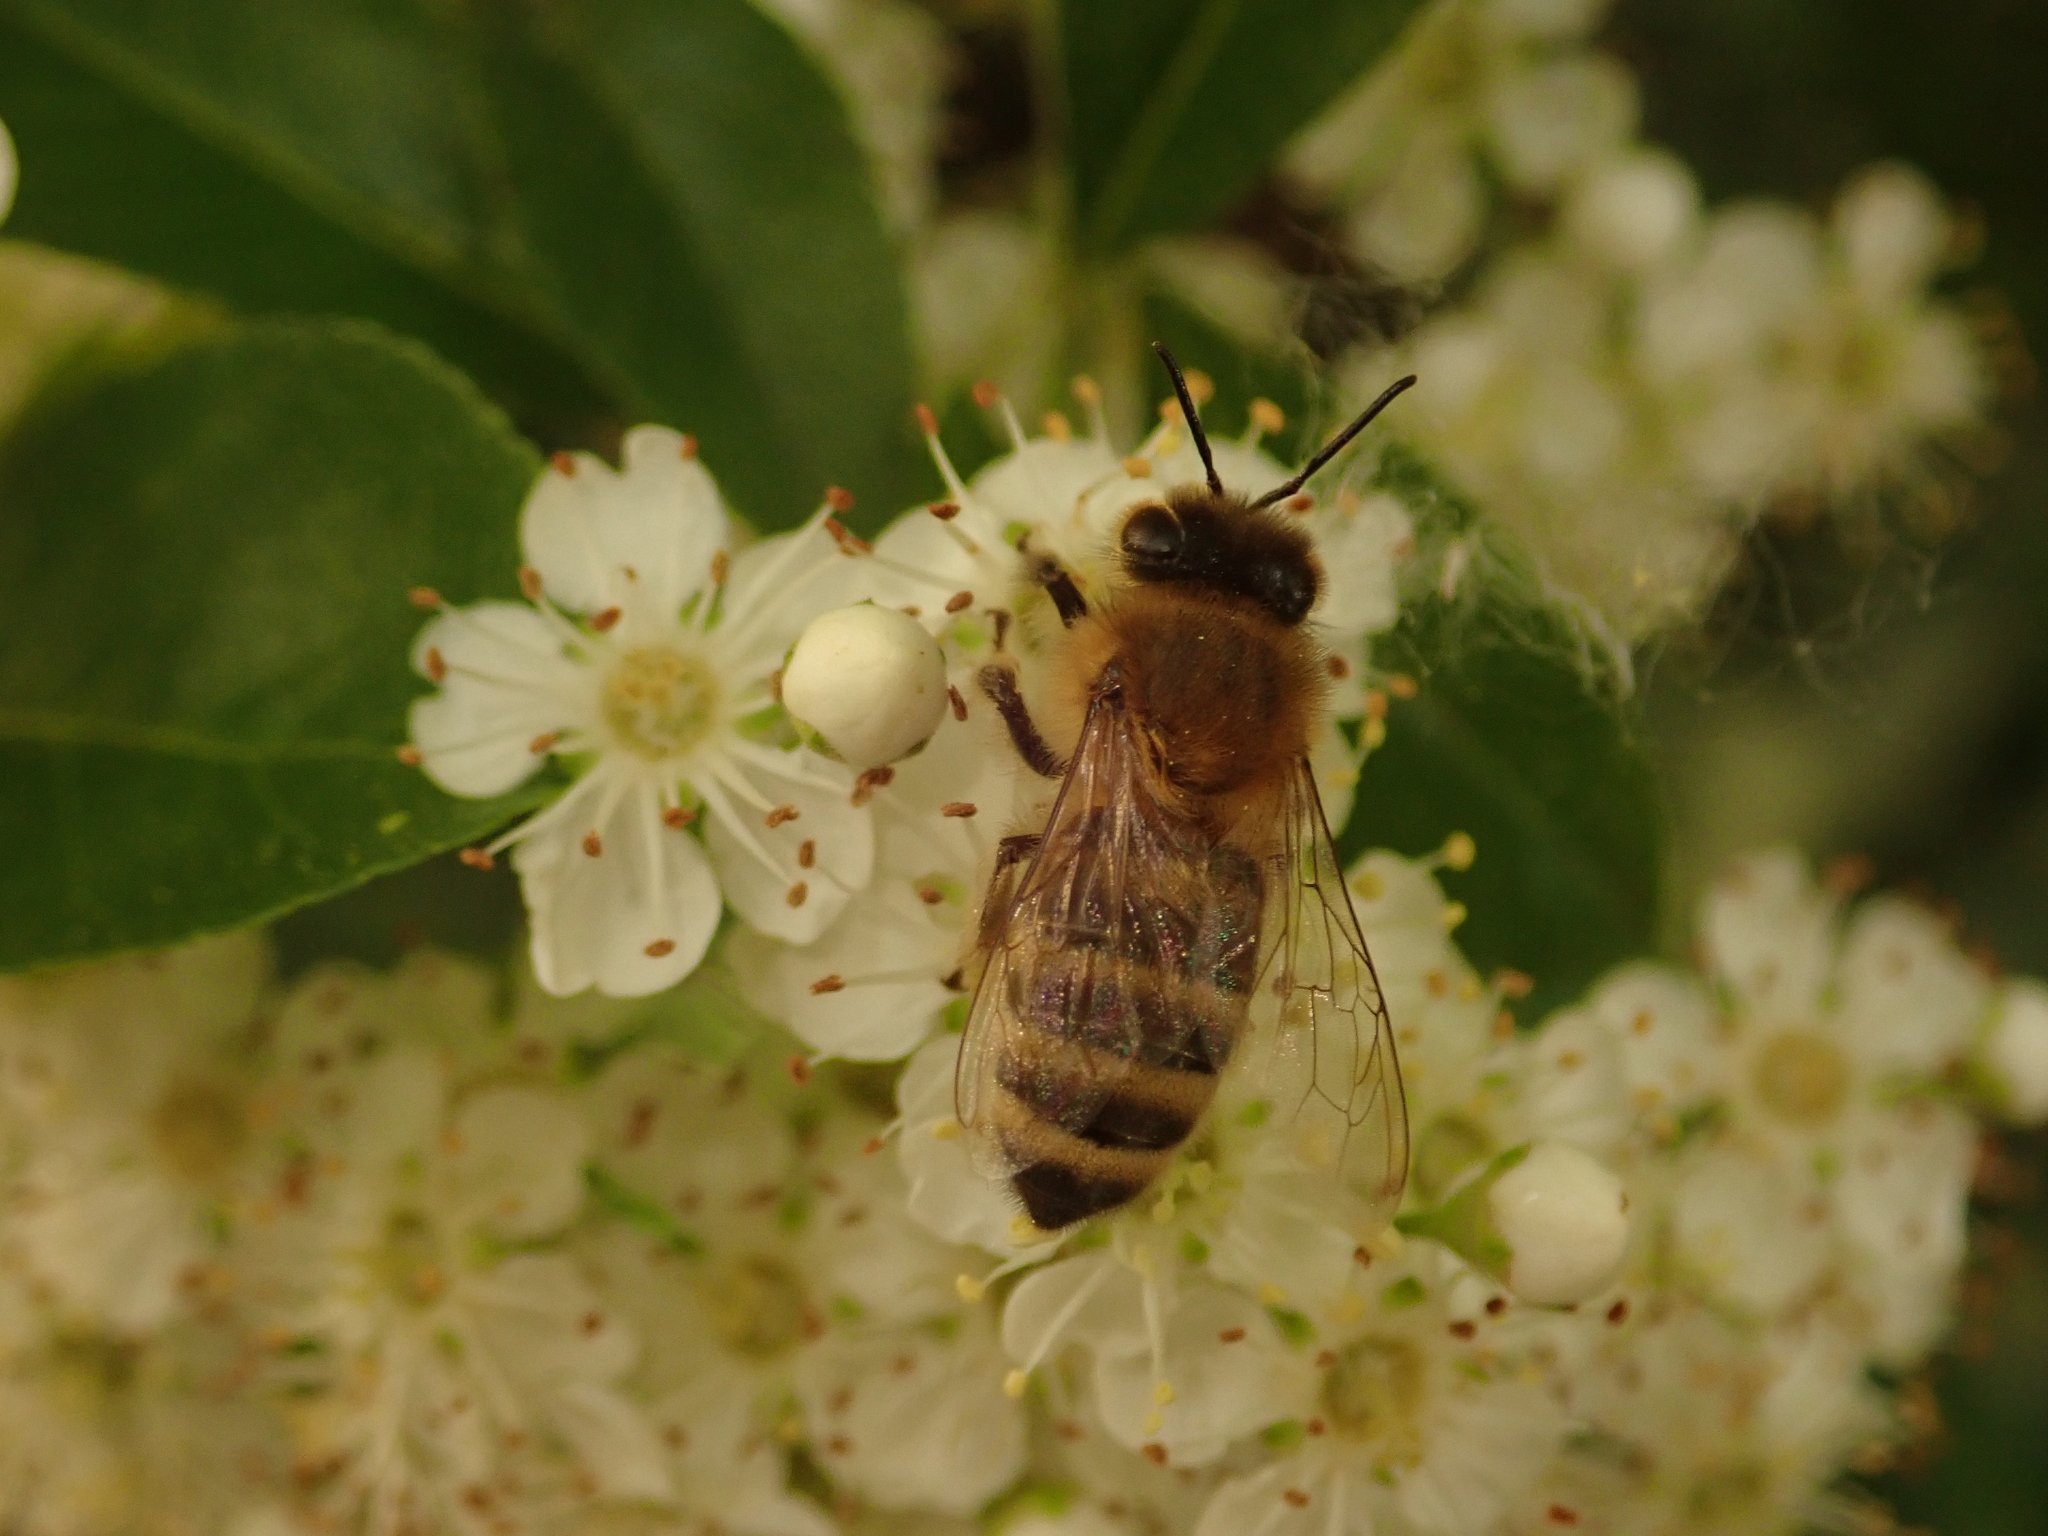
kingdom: Animalia
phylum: Arthropoda
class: Insecta
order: Hymenoptera
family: Apidae
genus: Apis
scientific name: Apis mellifera
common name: Honey bee
